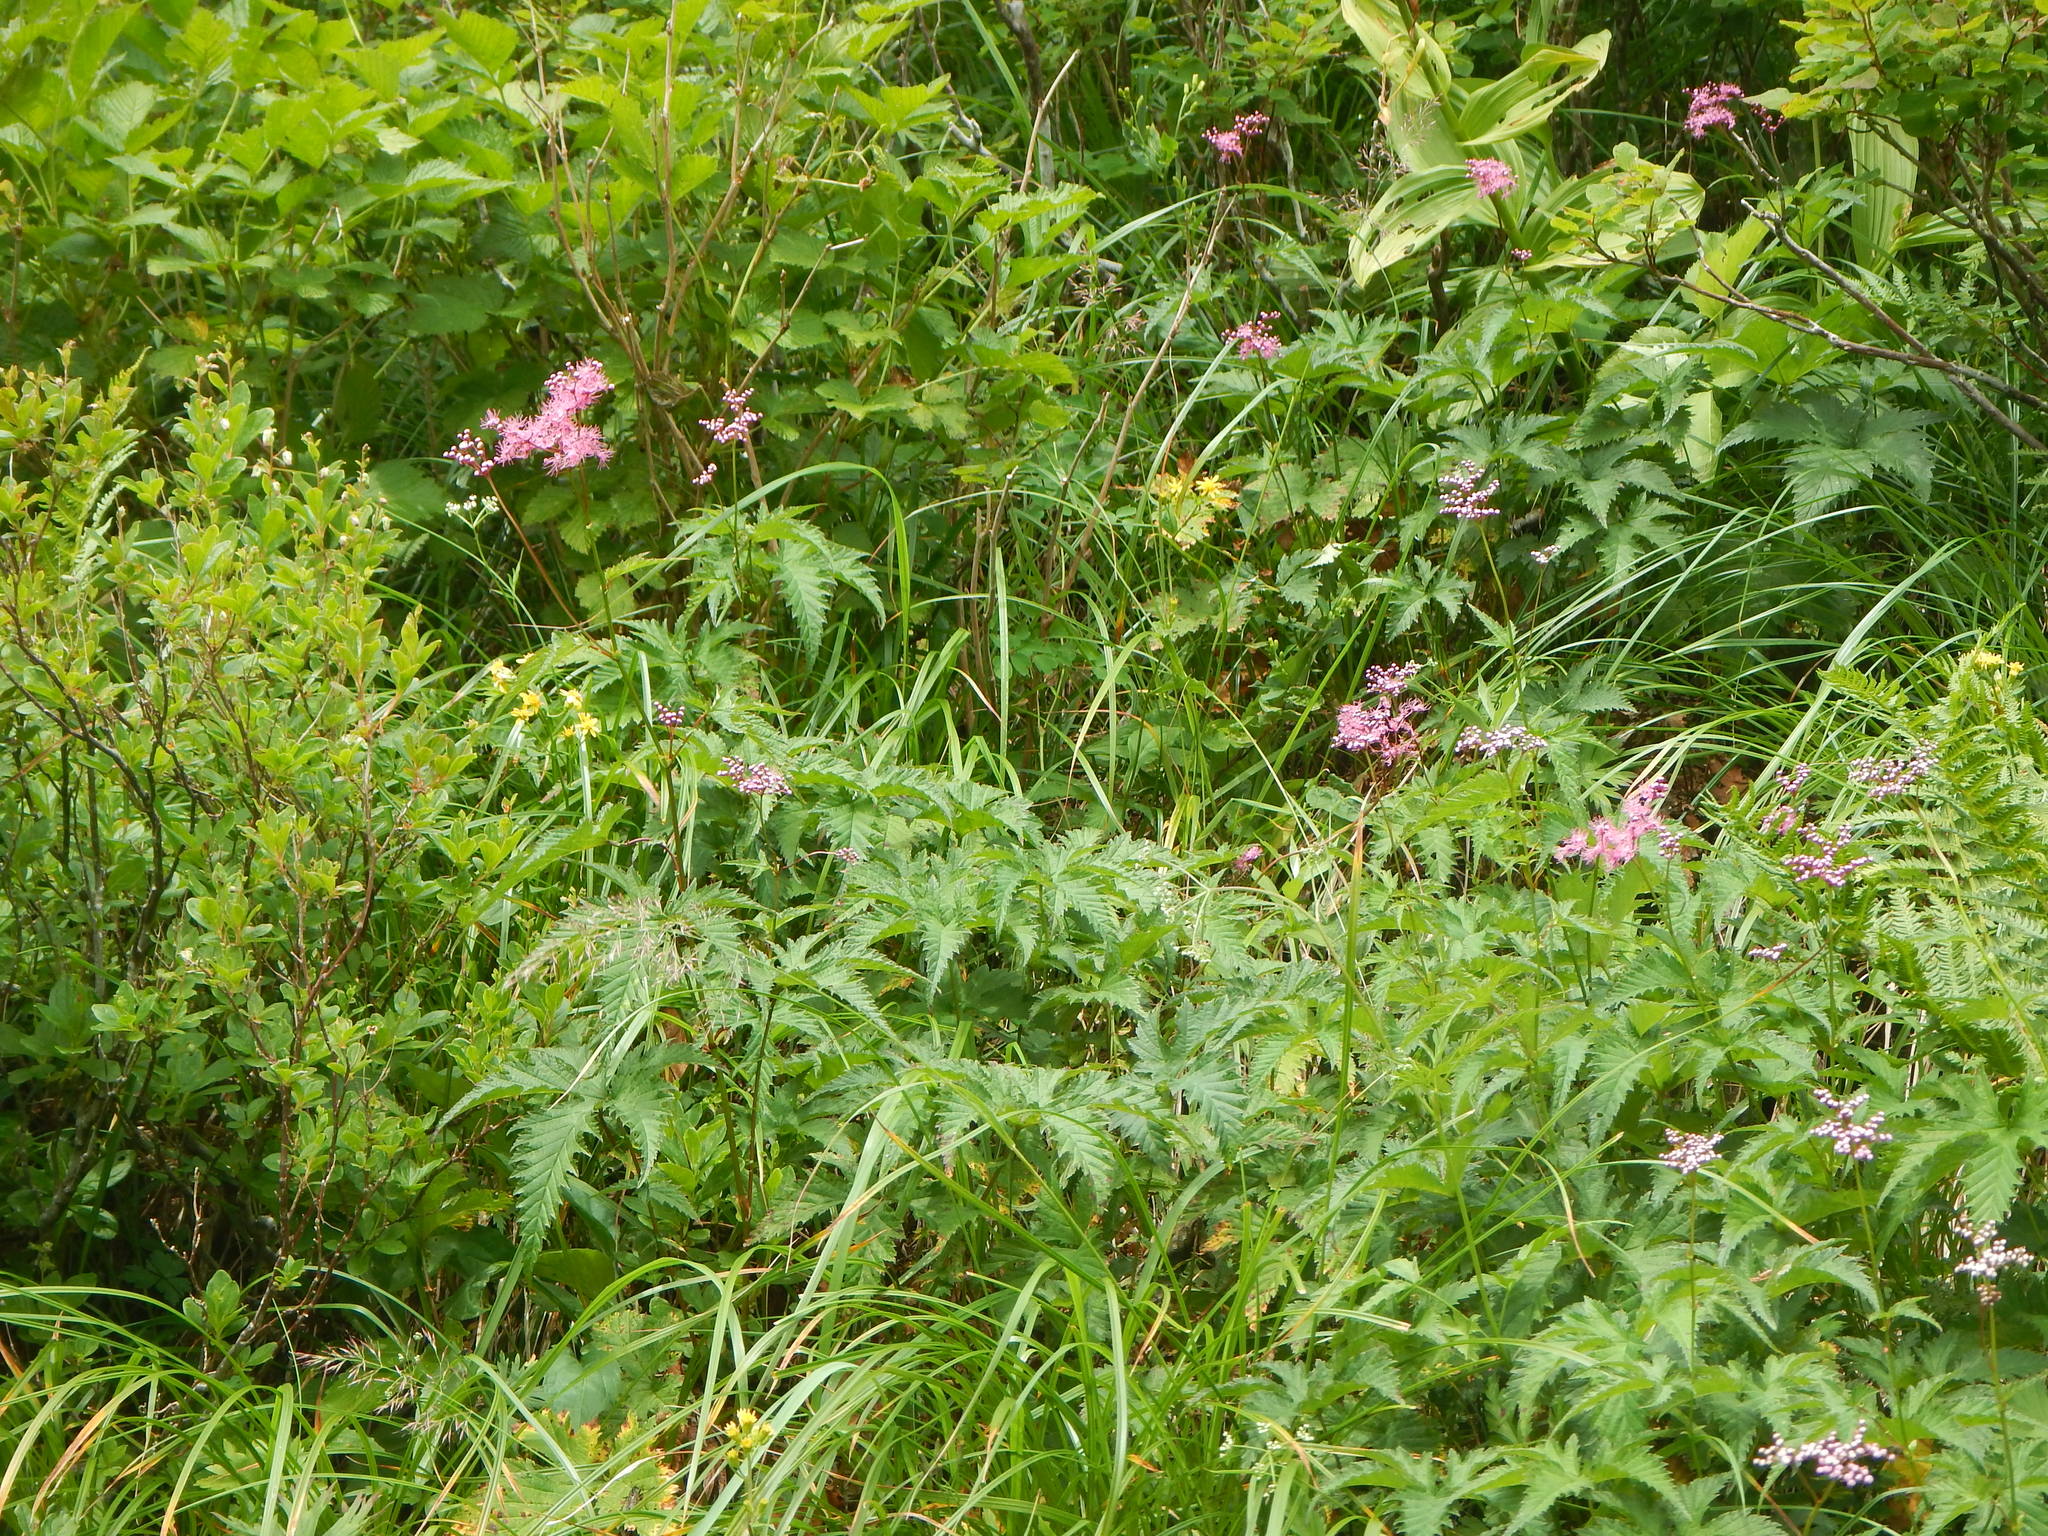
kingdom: Plantae
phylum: Tracheophyta
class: Magnoliopsida
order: Rosales
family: Rosaceae
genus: Filipendula
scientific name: Filipendula multijuga
